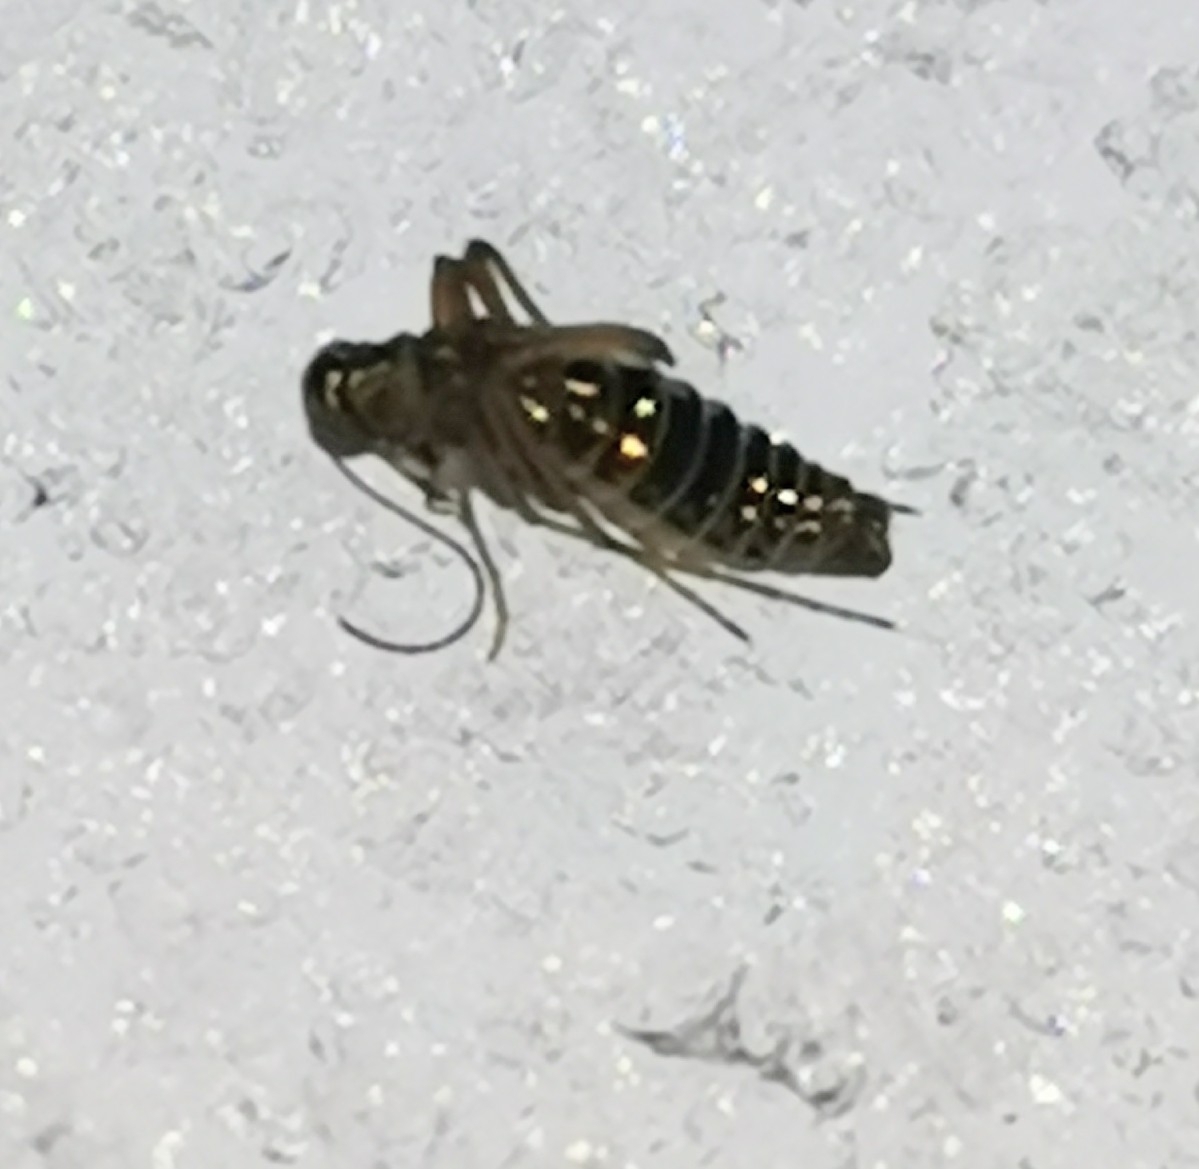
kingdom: Animalia
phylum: Arthropoda
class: Insecta
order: Mecoptera
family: Boreidae
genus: Boreus
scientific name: Boreus westwoodi
